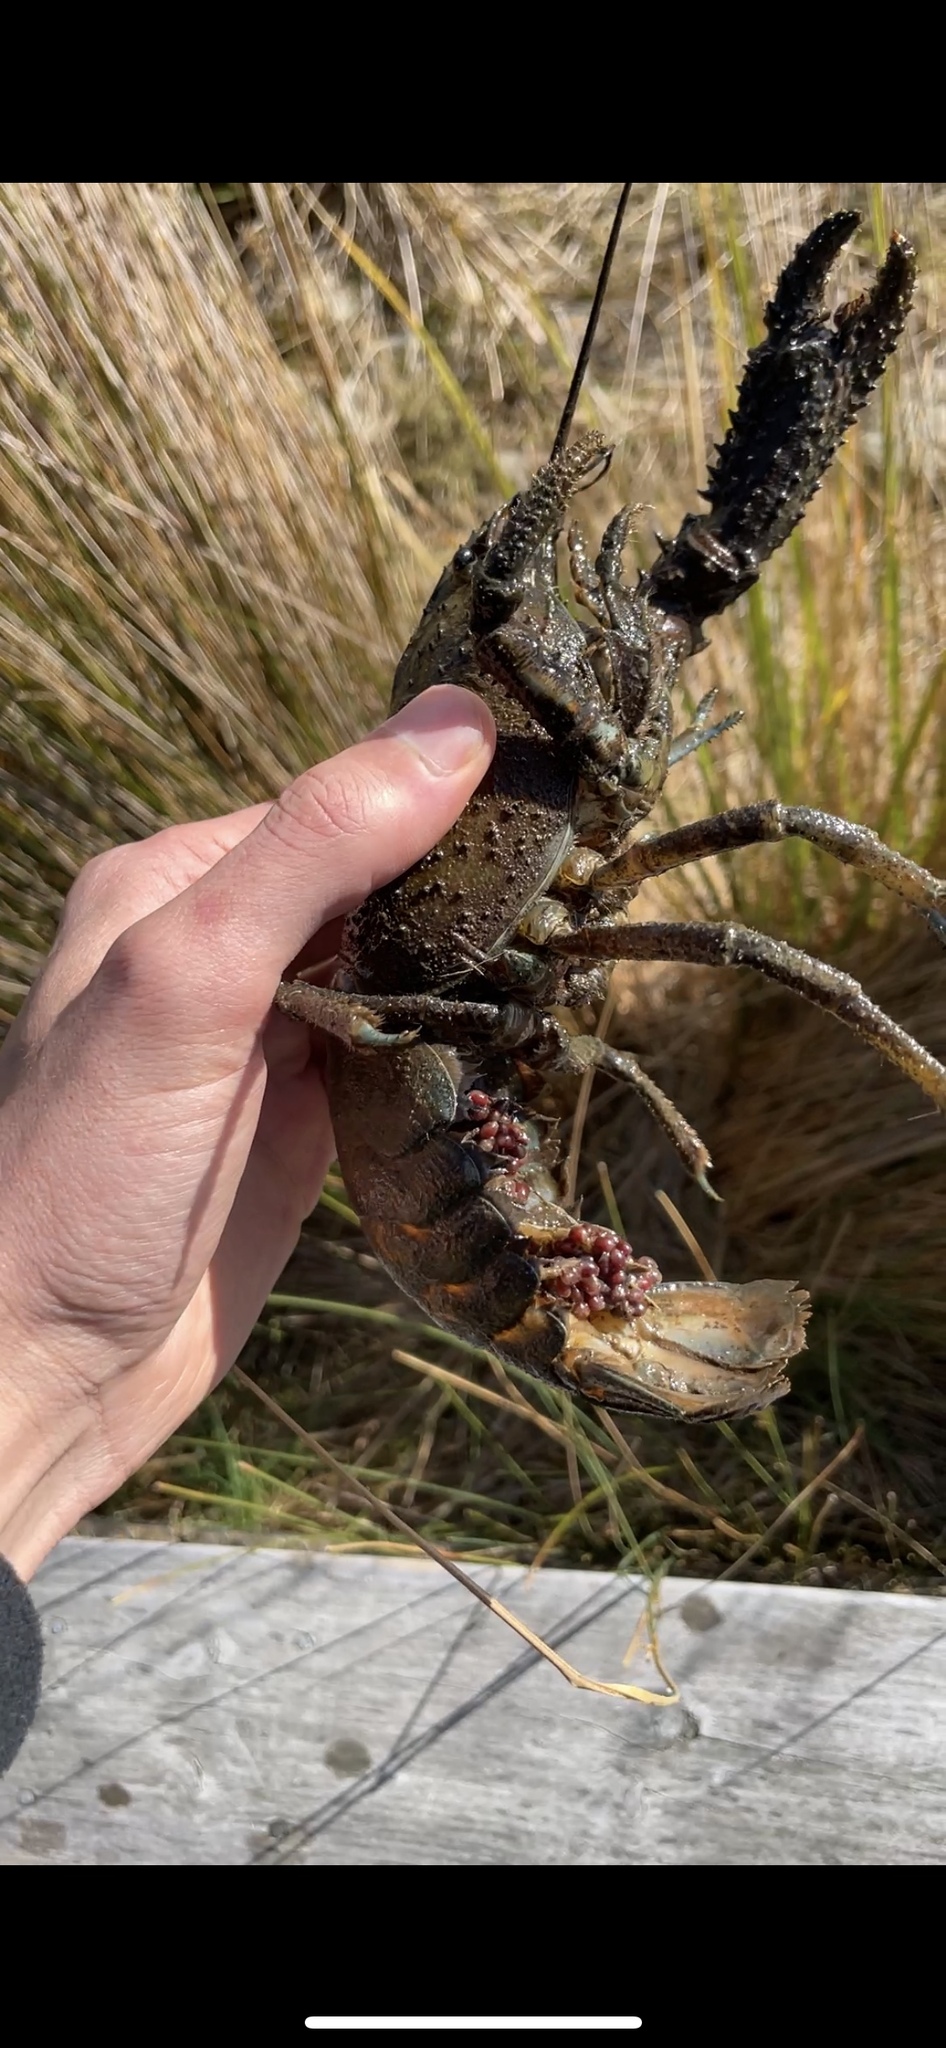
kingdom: Animalia
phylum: Arthropoda
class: Malacostraca
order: Decapoda
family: Parastacidae
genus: Paranephrops
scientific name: Paranephrops zealandicus
